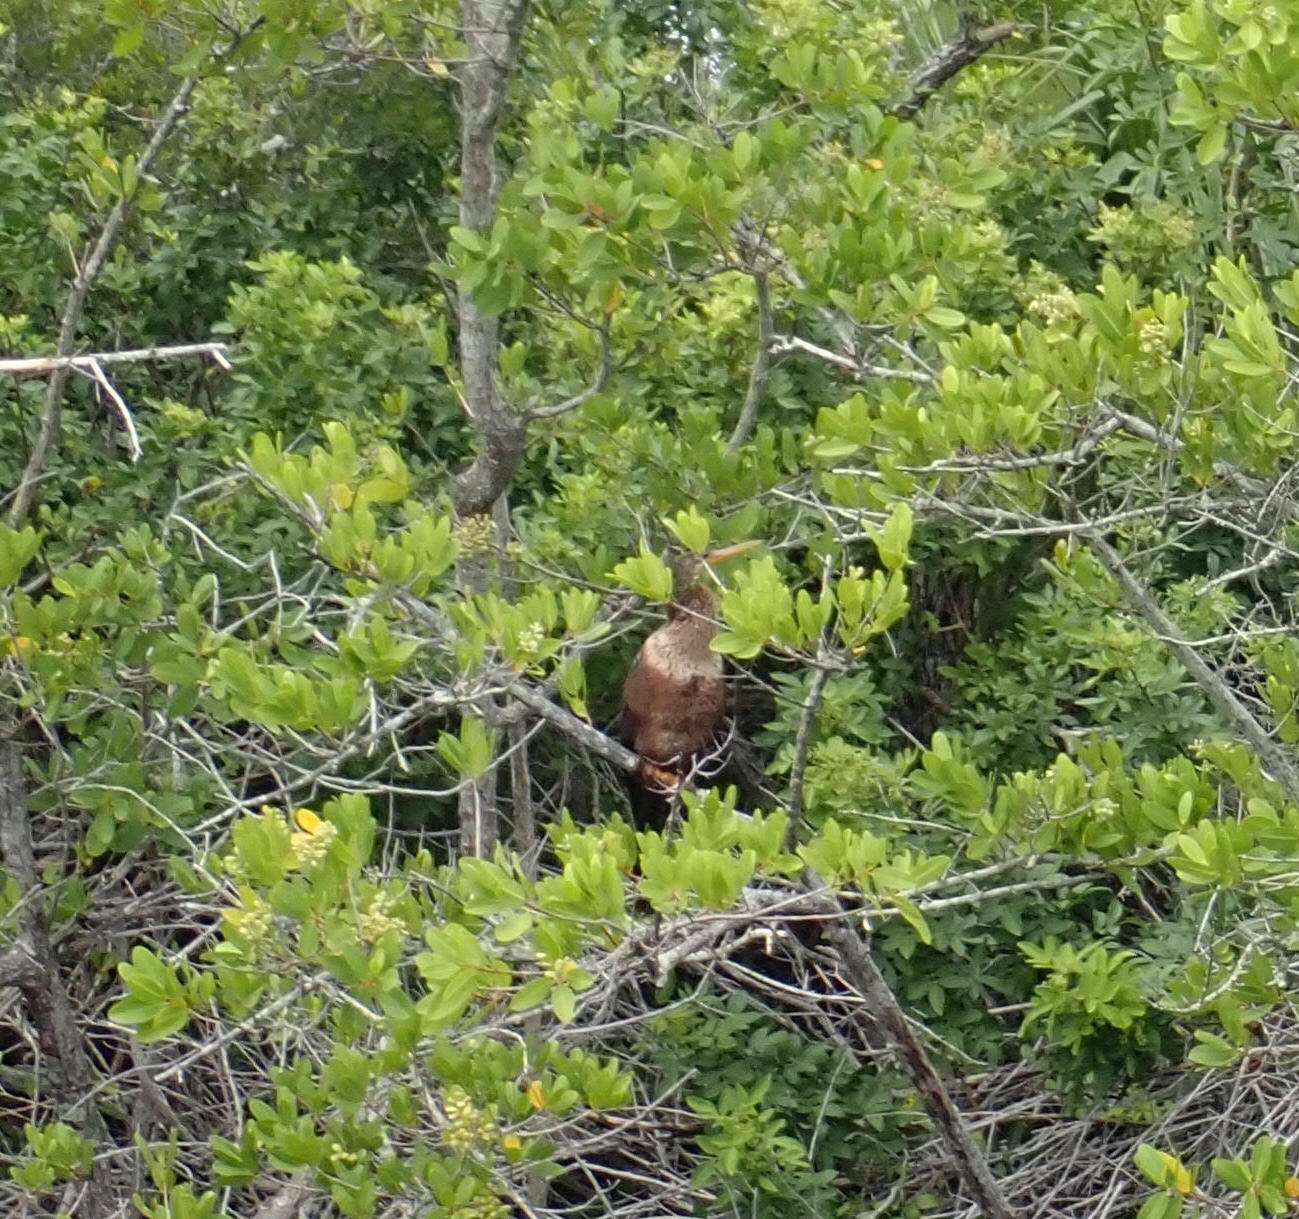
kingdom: Animalia
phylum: Chordata
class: Aves
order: Suliformes
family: Anhingidae
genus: Anhinga
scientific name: Anhinga anhinga
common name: Anhinga
